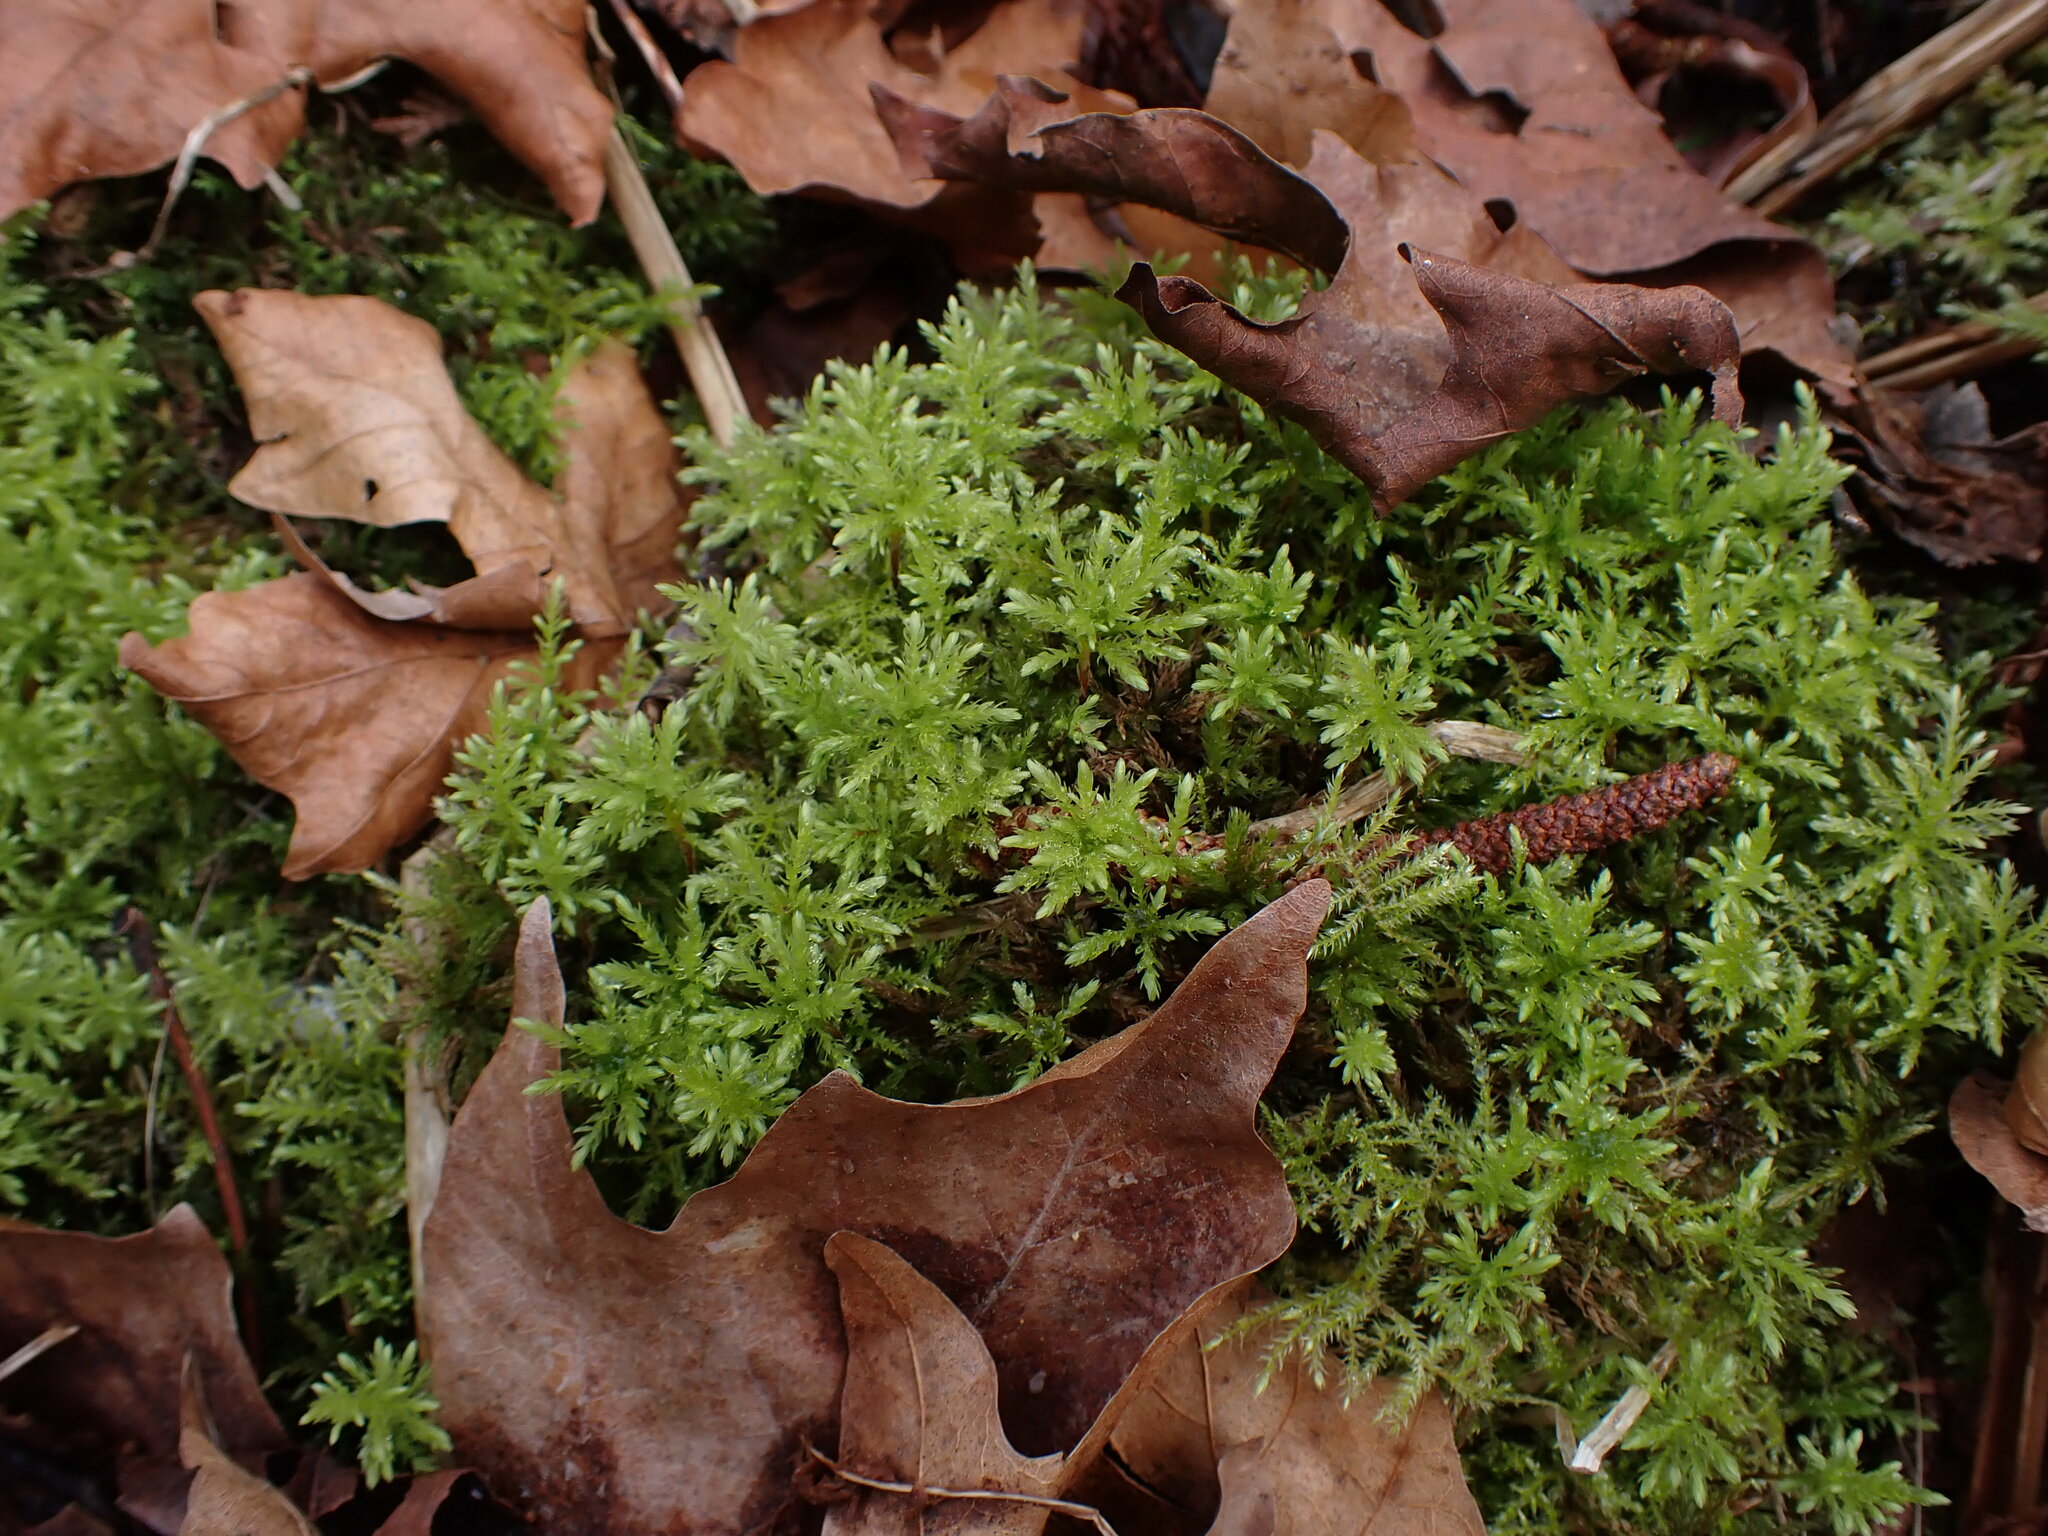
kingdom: Plantae
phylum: Bryophyta
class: Bryopsida
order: Bryales
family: Mniaceae
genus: Leucolepis
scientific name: Leucolepis acanthoneura
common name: Leucolepis umbrella moss
